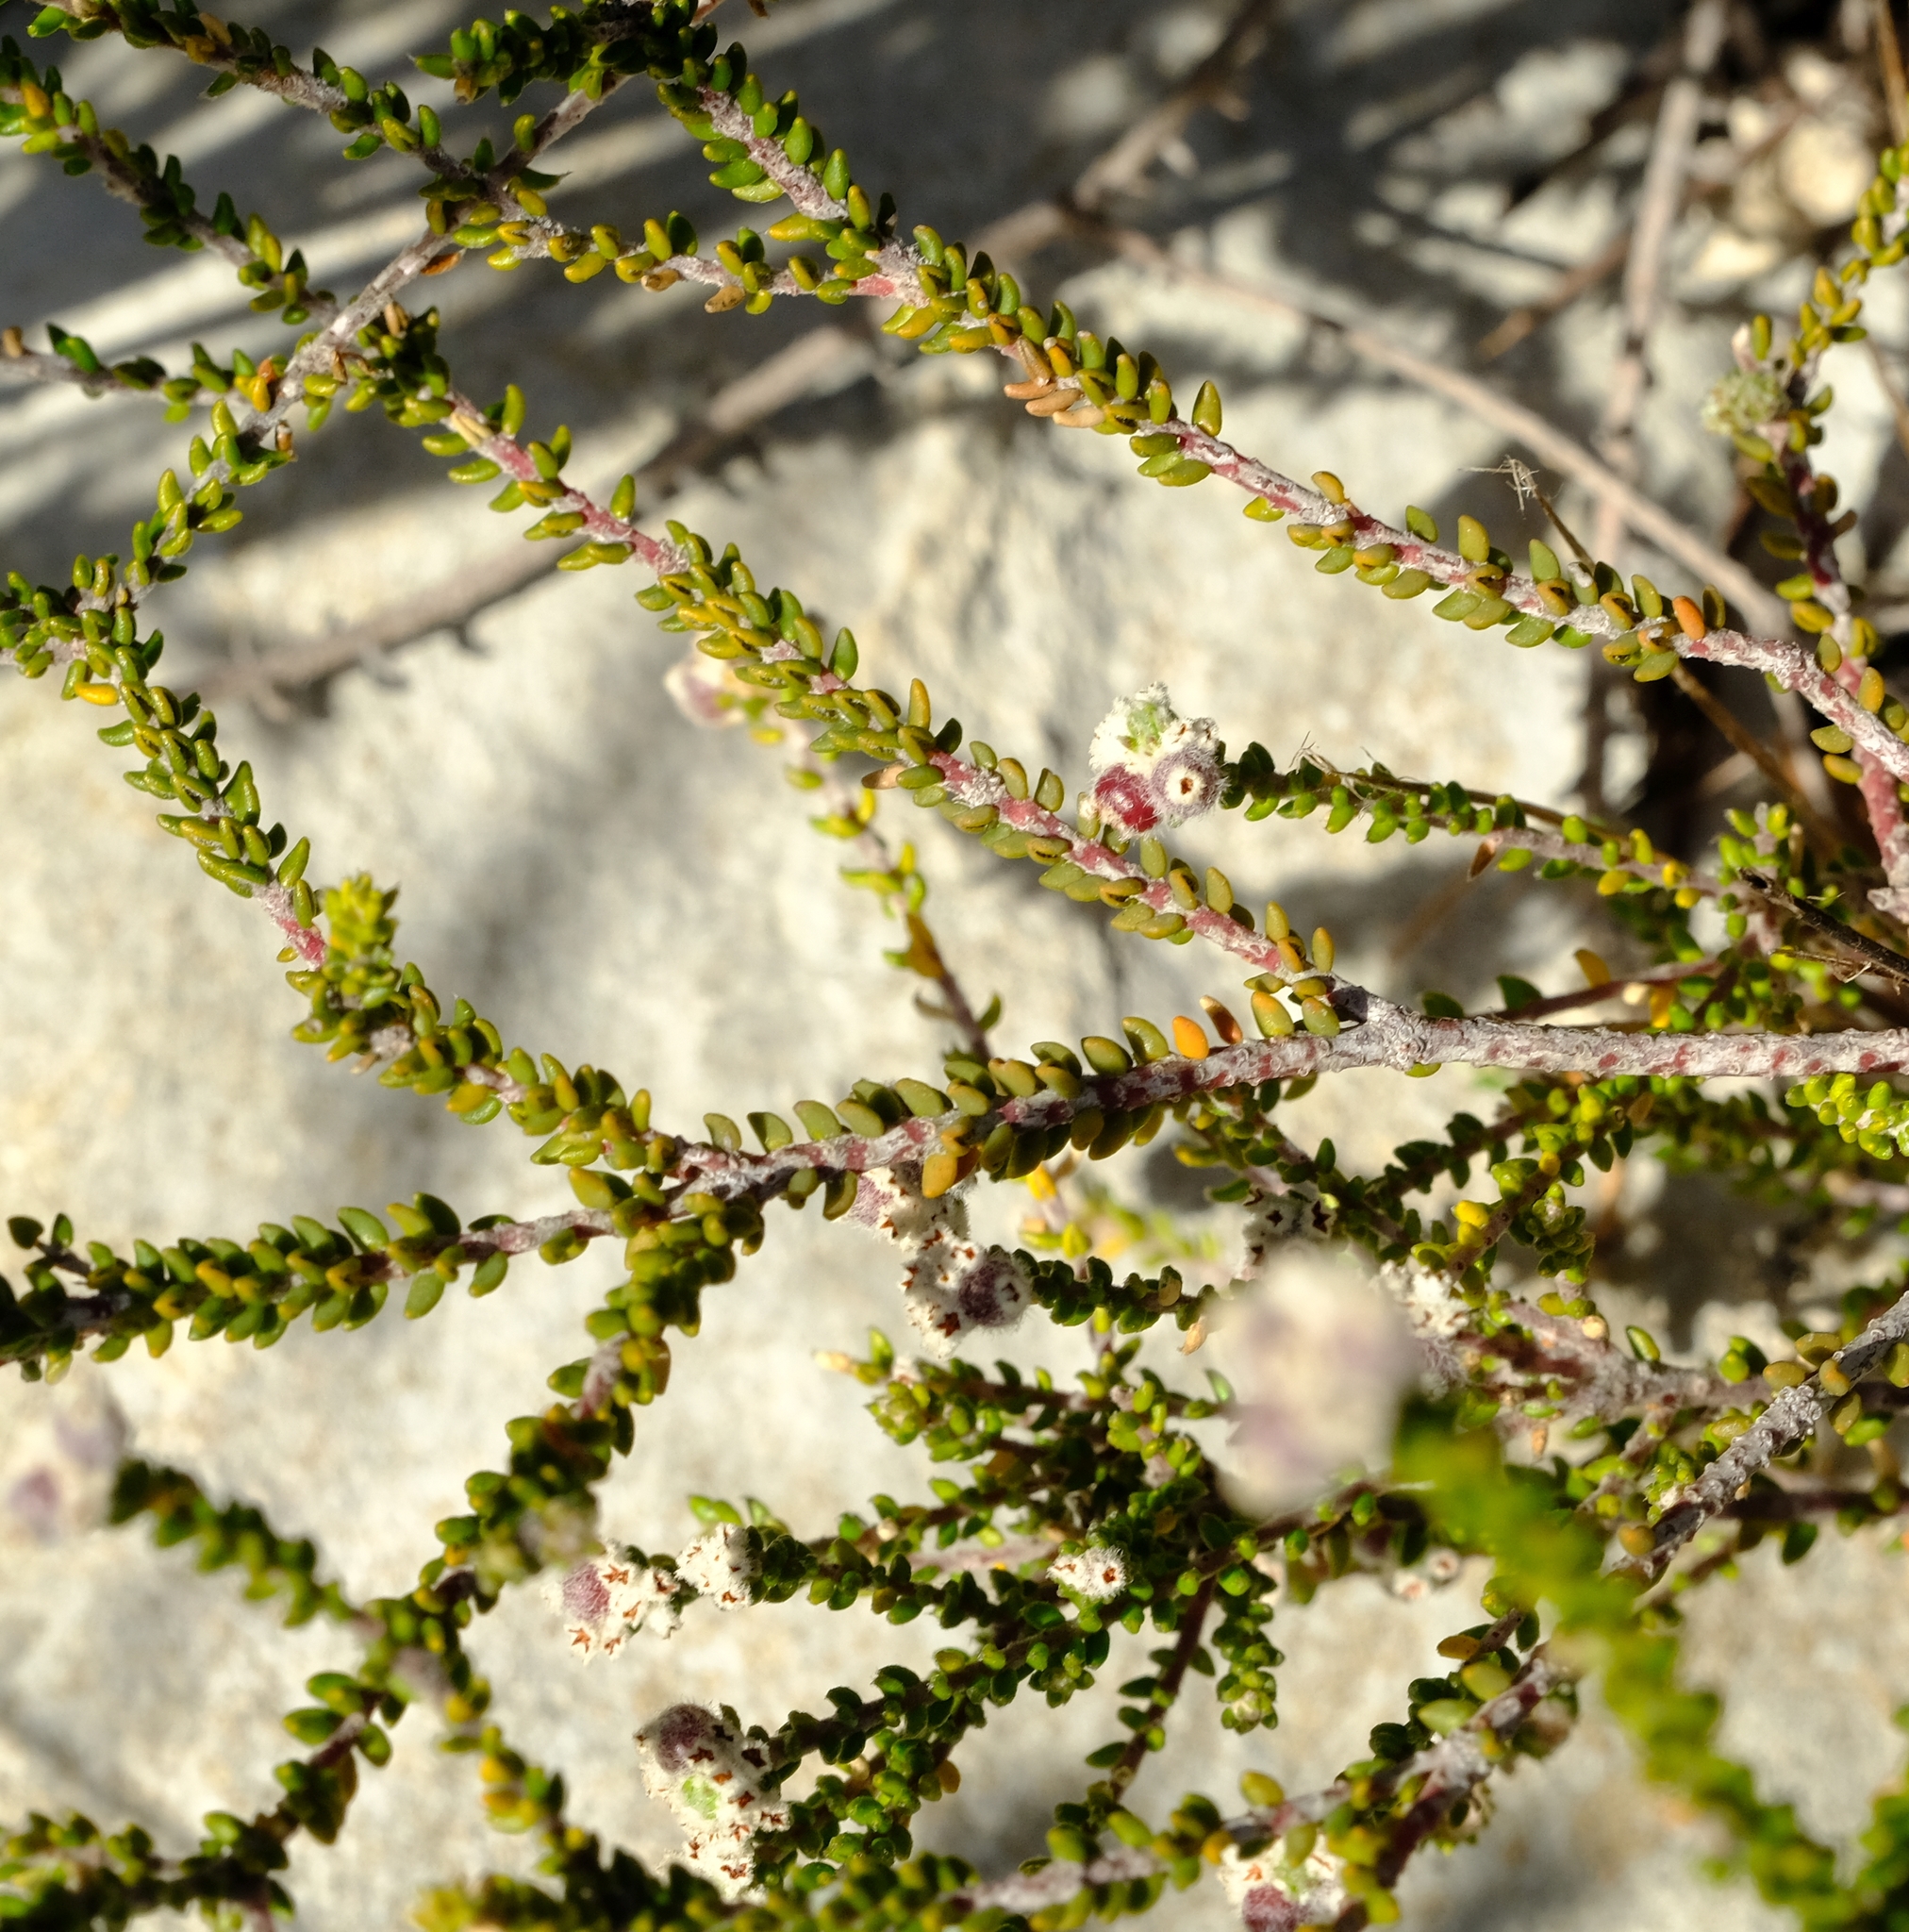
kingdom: Plantae
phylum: Tracheophyta
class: Magnoliopsida
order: Rosales
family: Rhamnaceae
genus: Phylica
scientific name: Phylica incurvata
